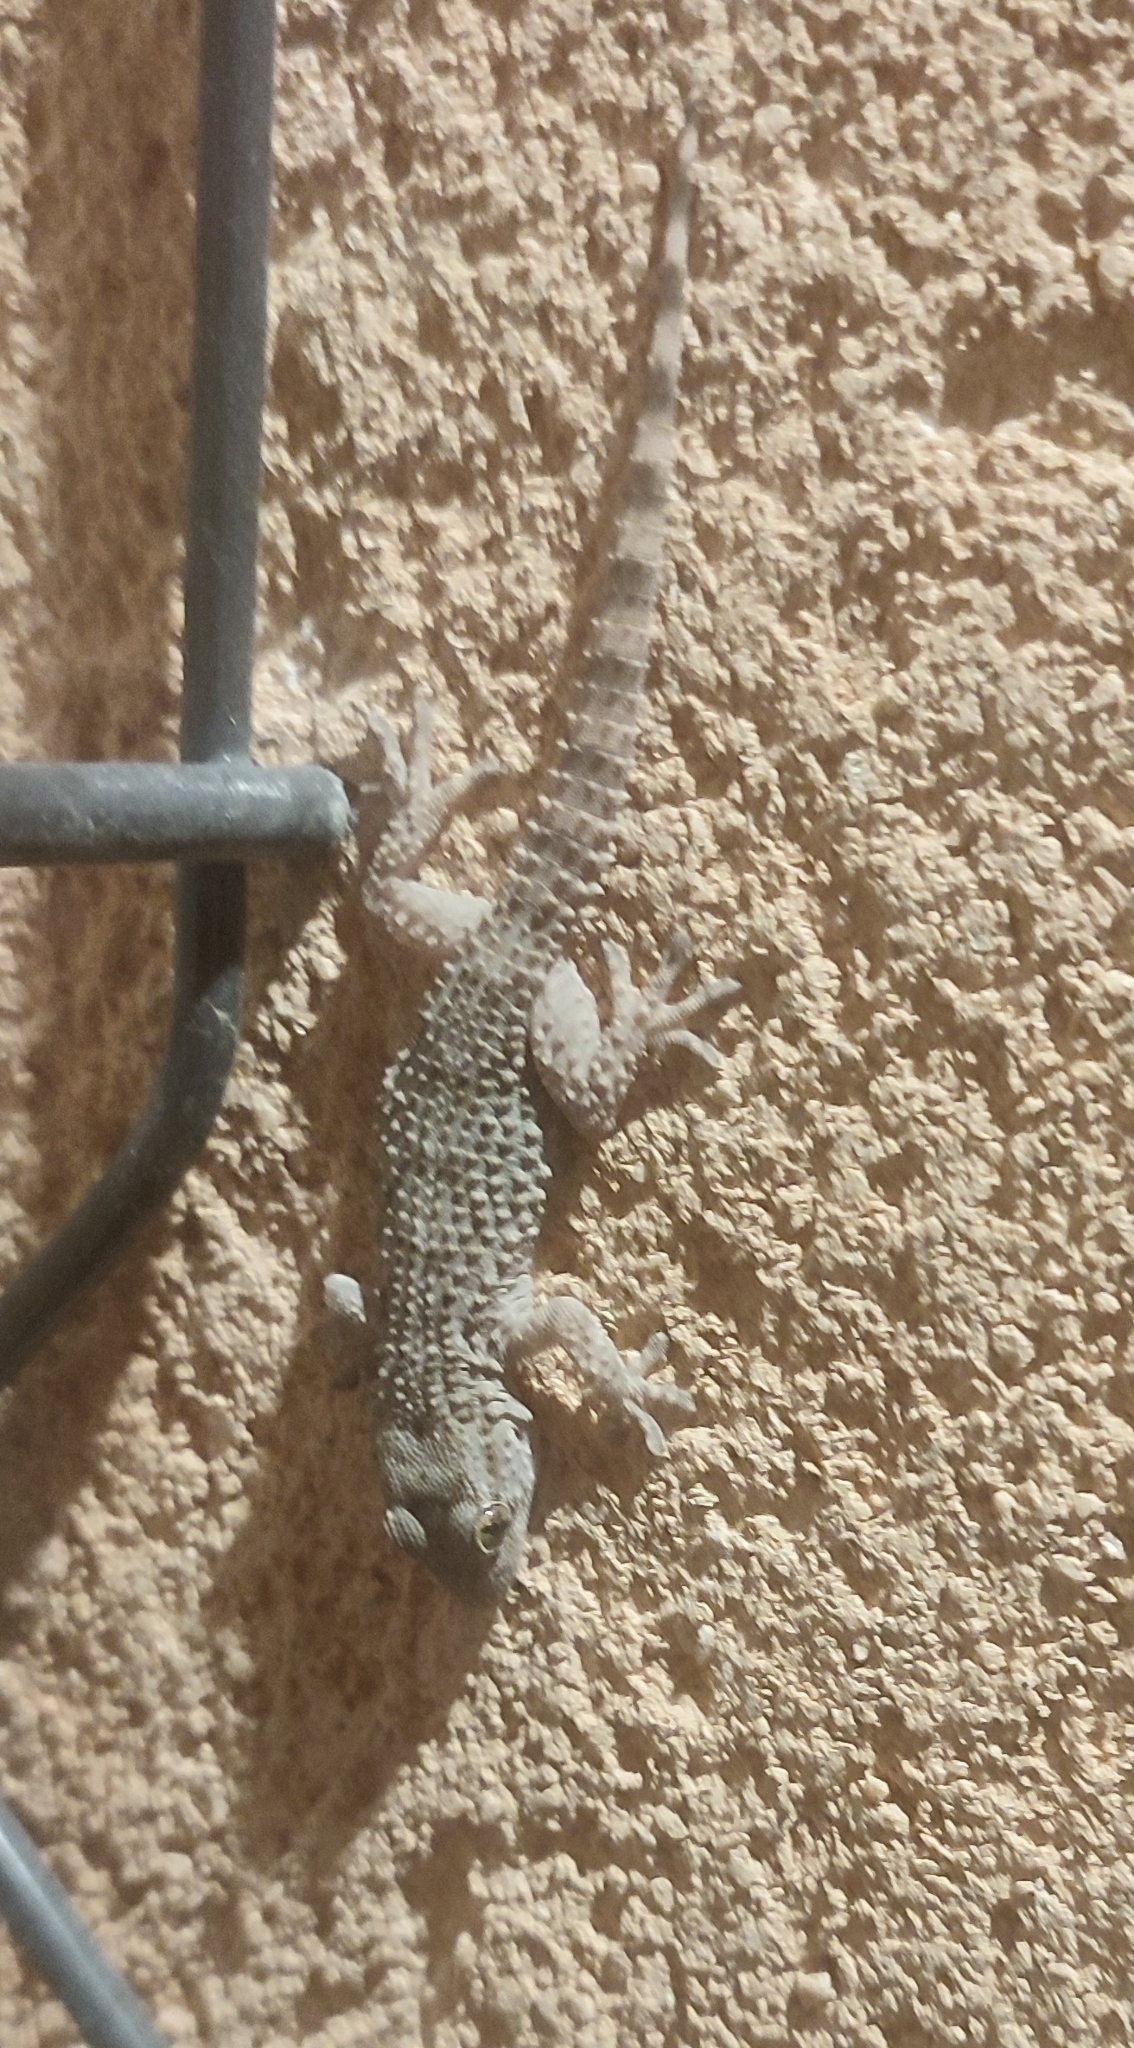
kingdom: Animalia
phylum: Chordata
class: Squamata
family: Phyllodactylidae
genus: Tarentola
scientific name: Tarentola mauritanica
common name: Moorish gecko
